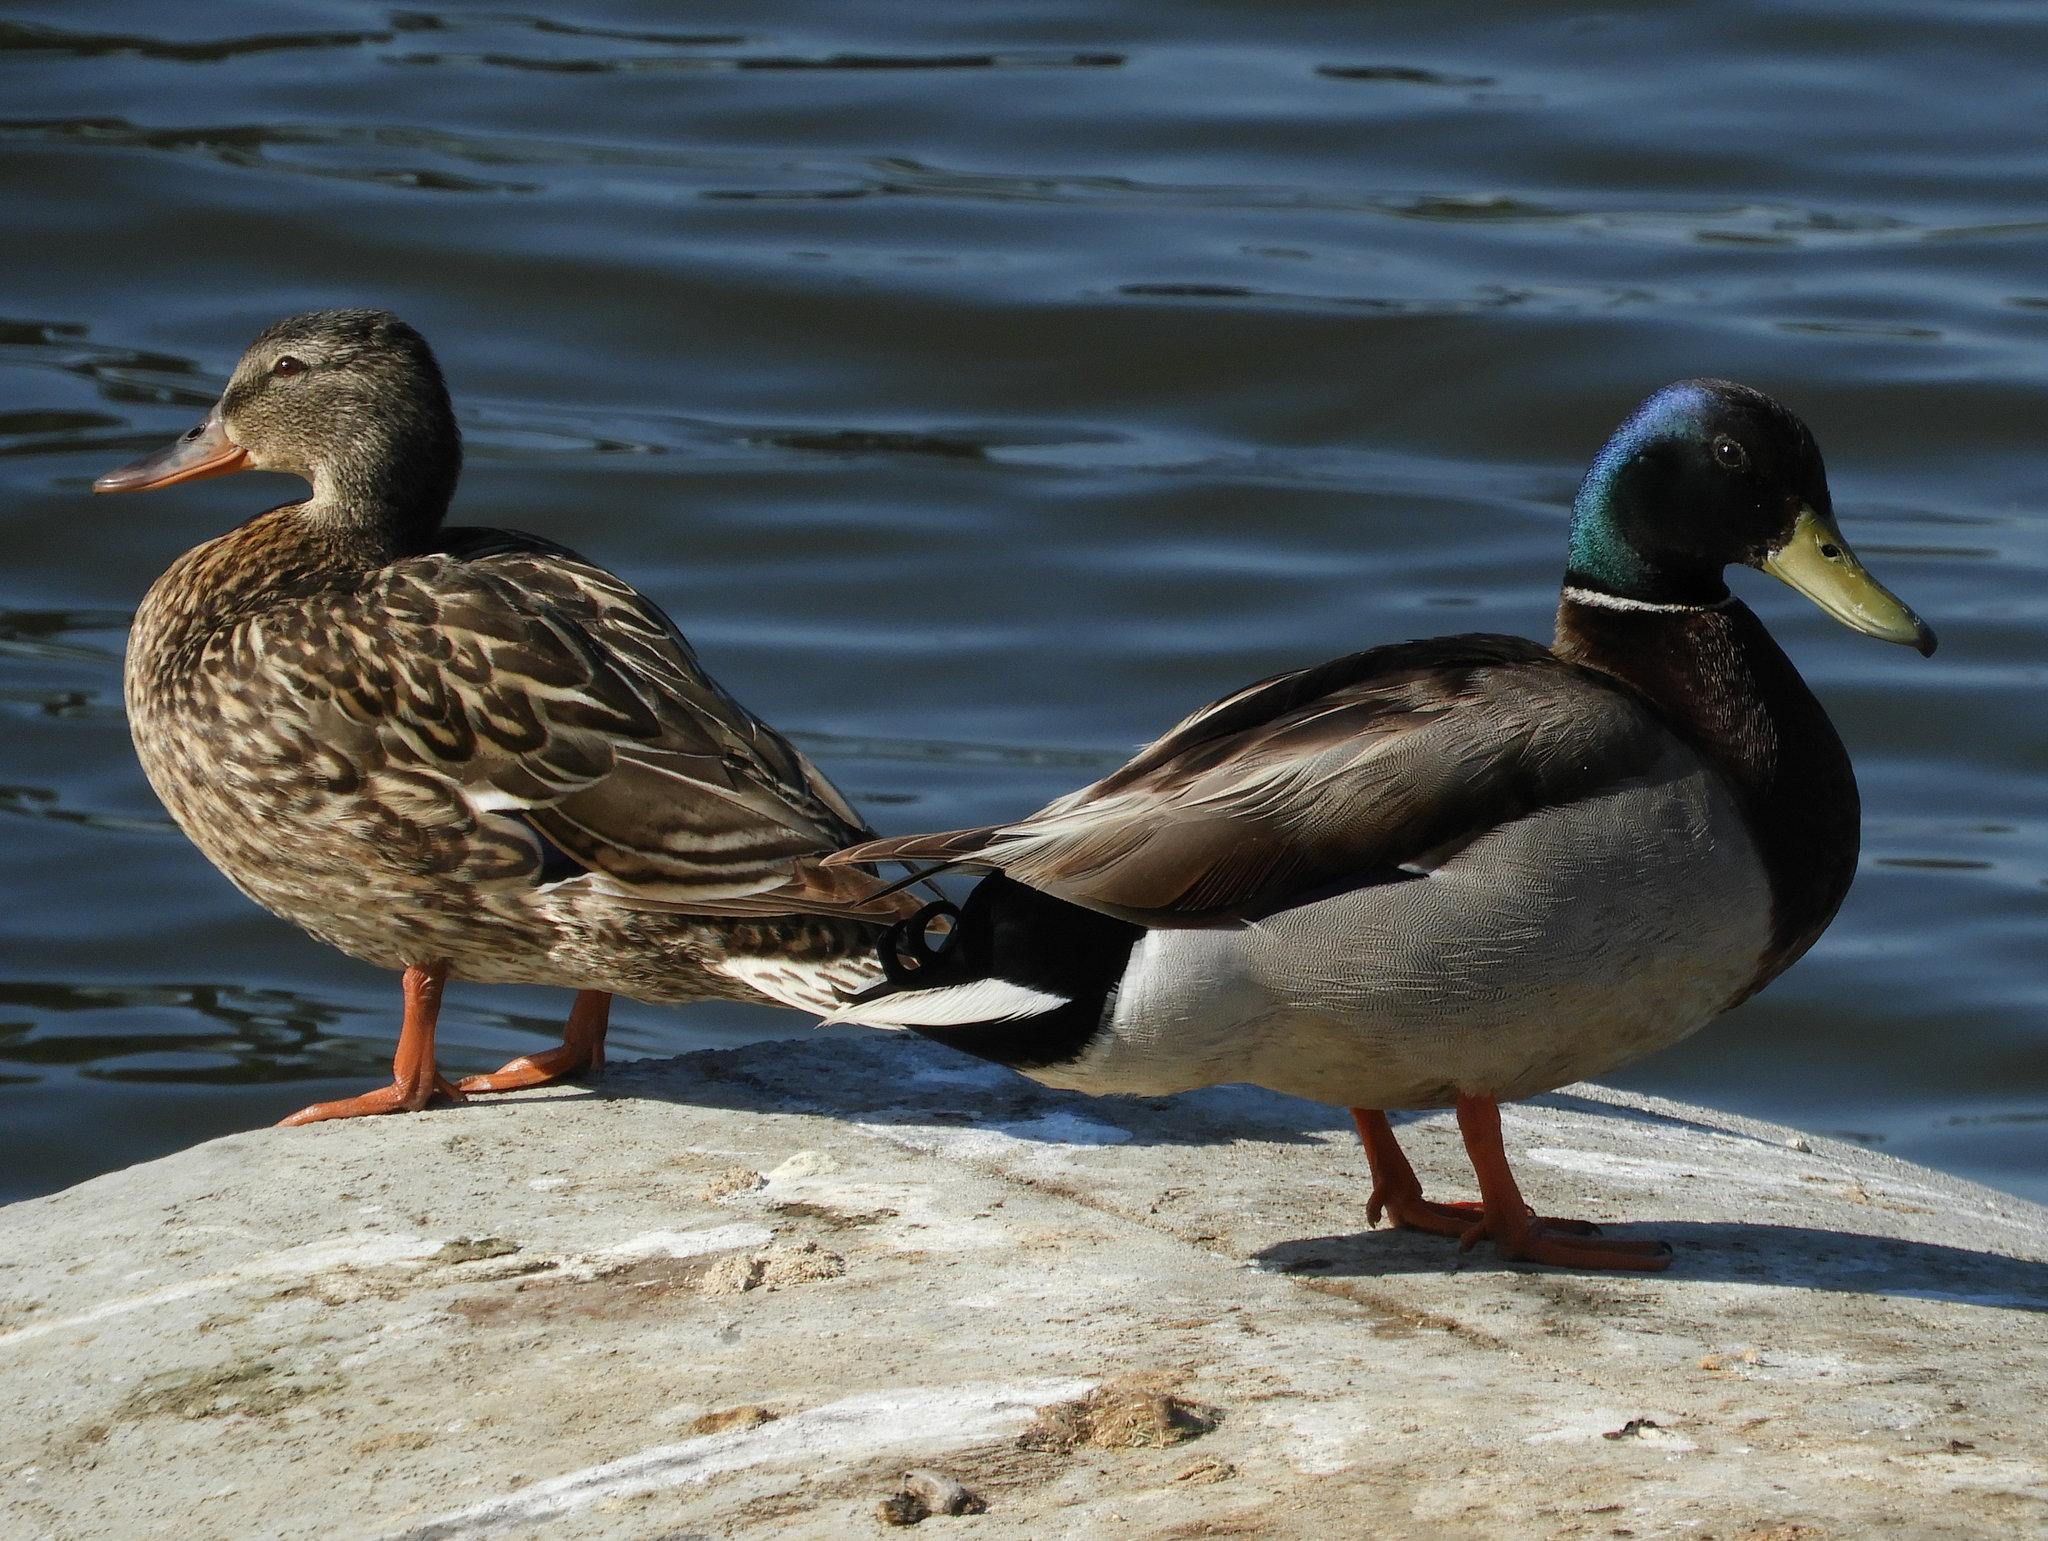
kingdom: Animalia
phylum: Chordata
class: Aves
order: Anseriformes
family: Anatidae
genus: Anas
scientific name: Anas platyrhynchos
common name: Mallard
